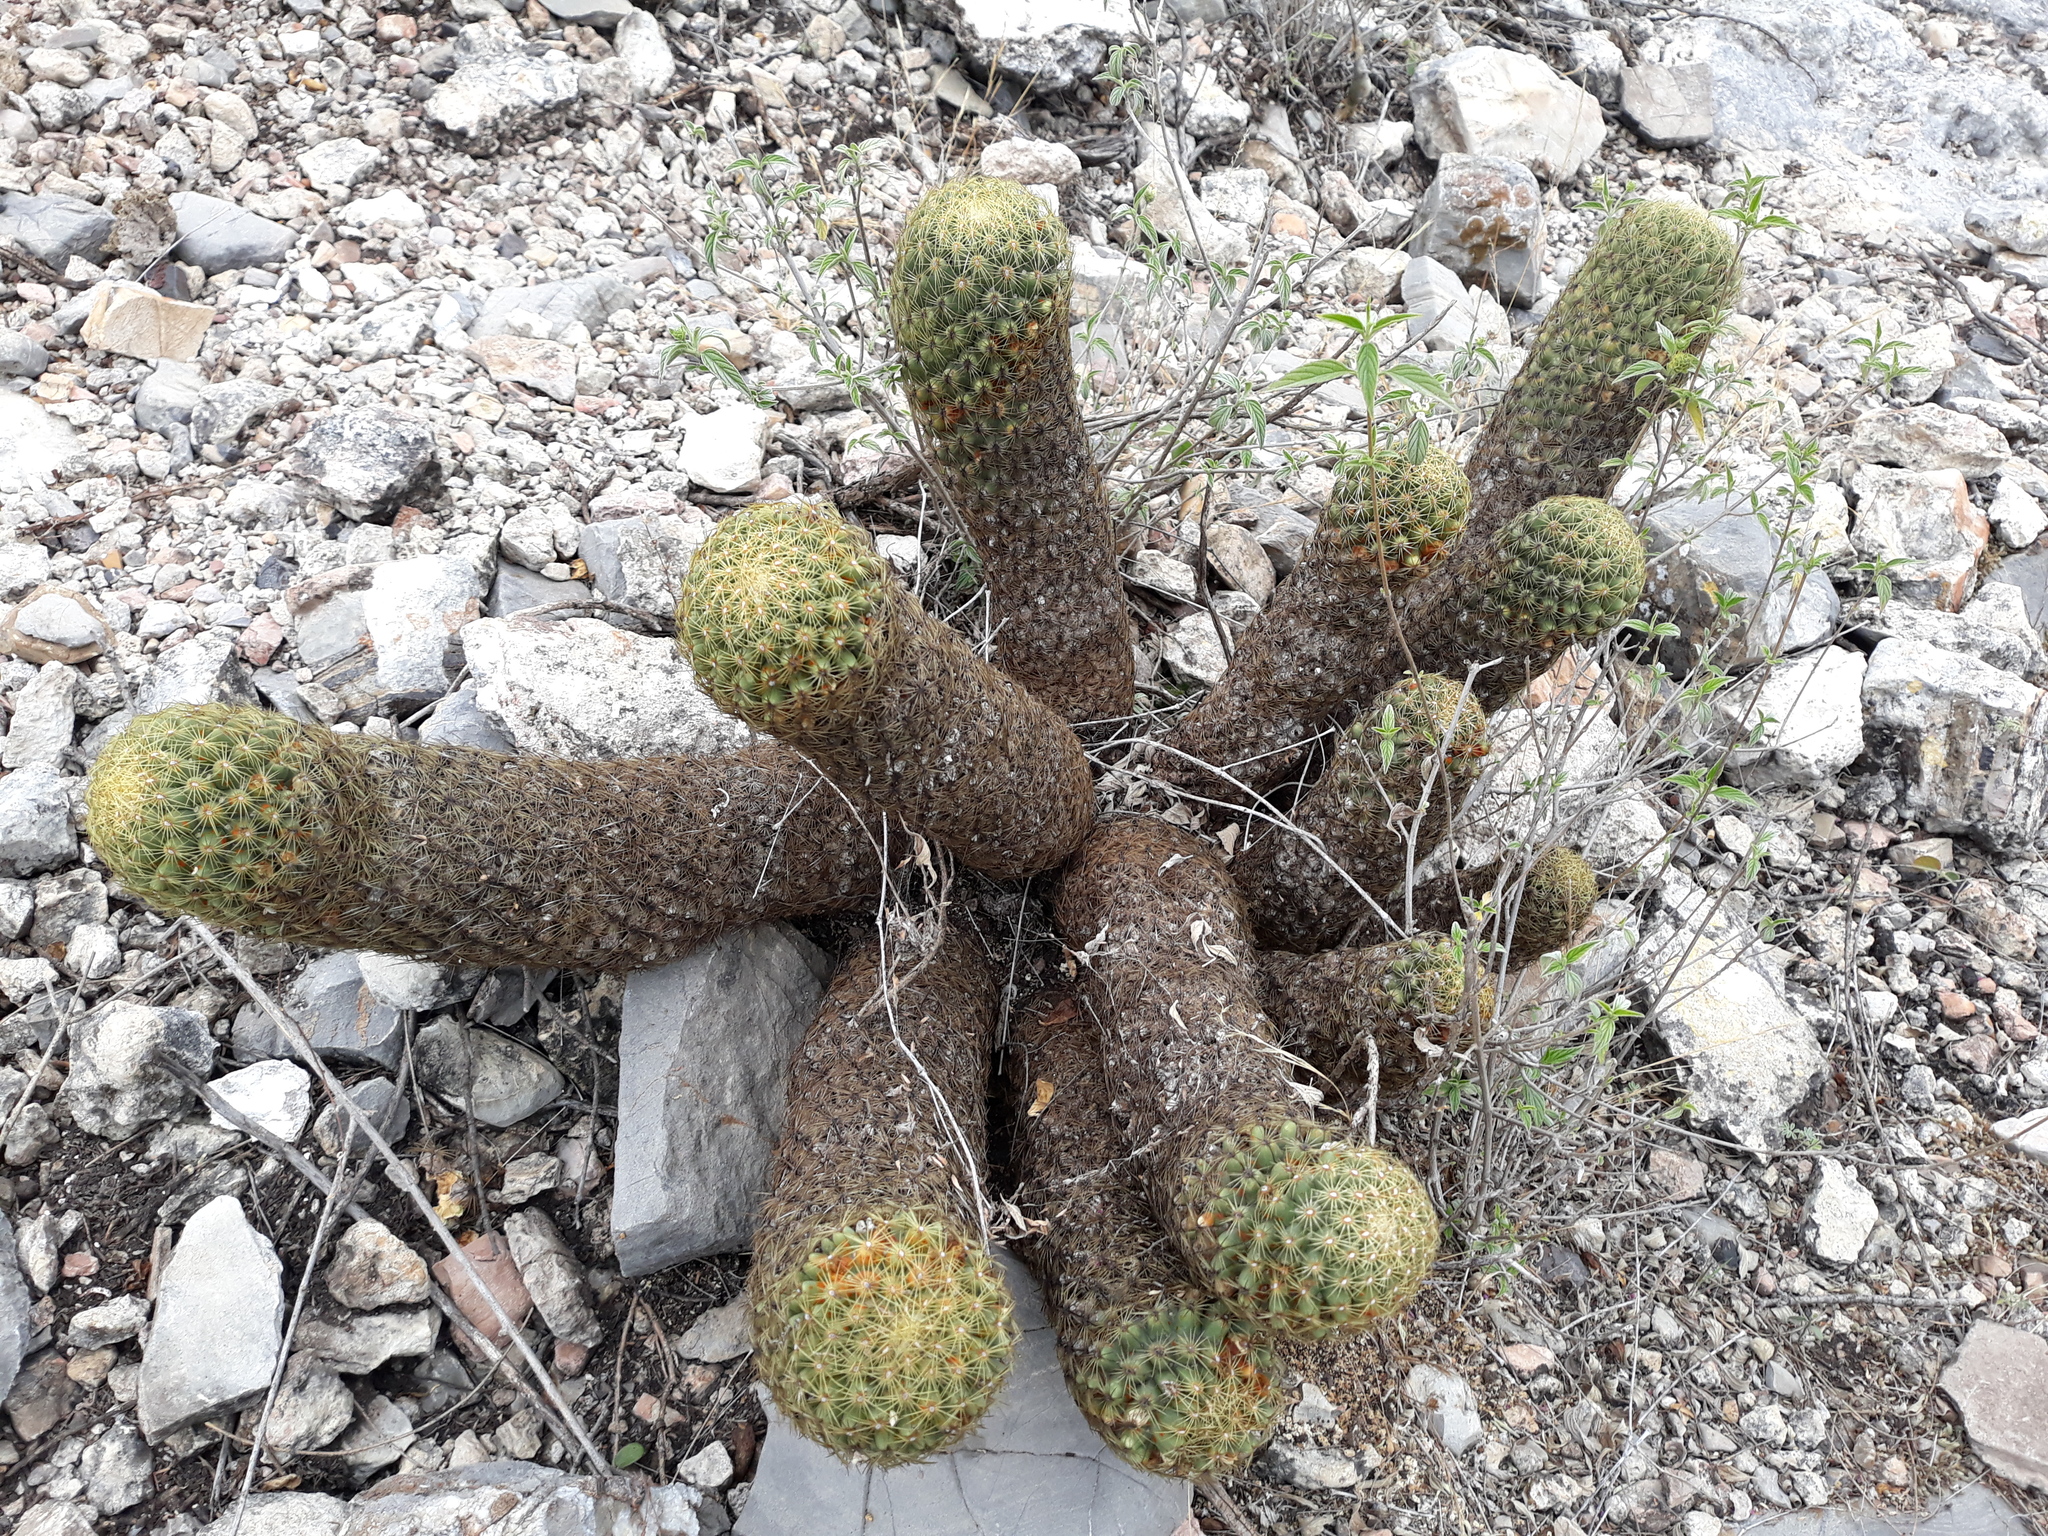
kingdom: Plantae
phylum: Tracheophyta
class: Magnoliopsida
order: Caryophyllales
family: Cactaceae
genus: Coryphantha
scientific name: Coryphantha erecta
